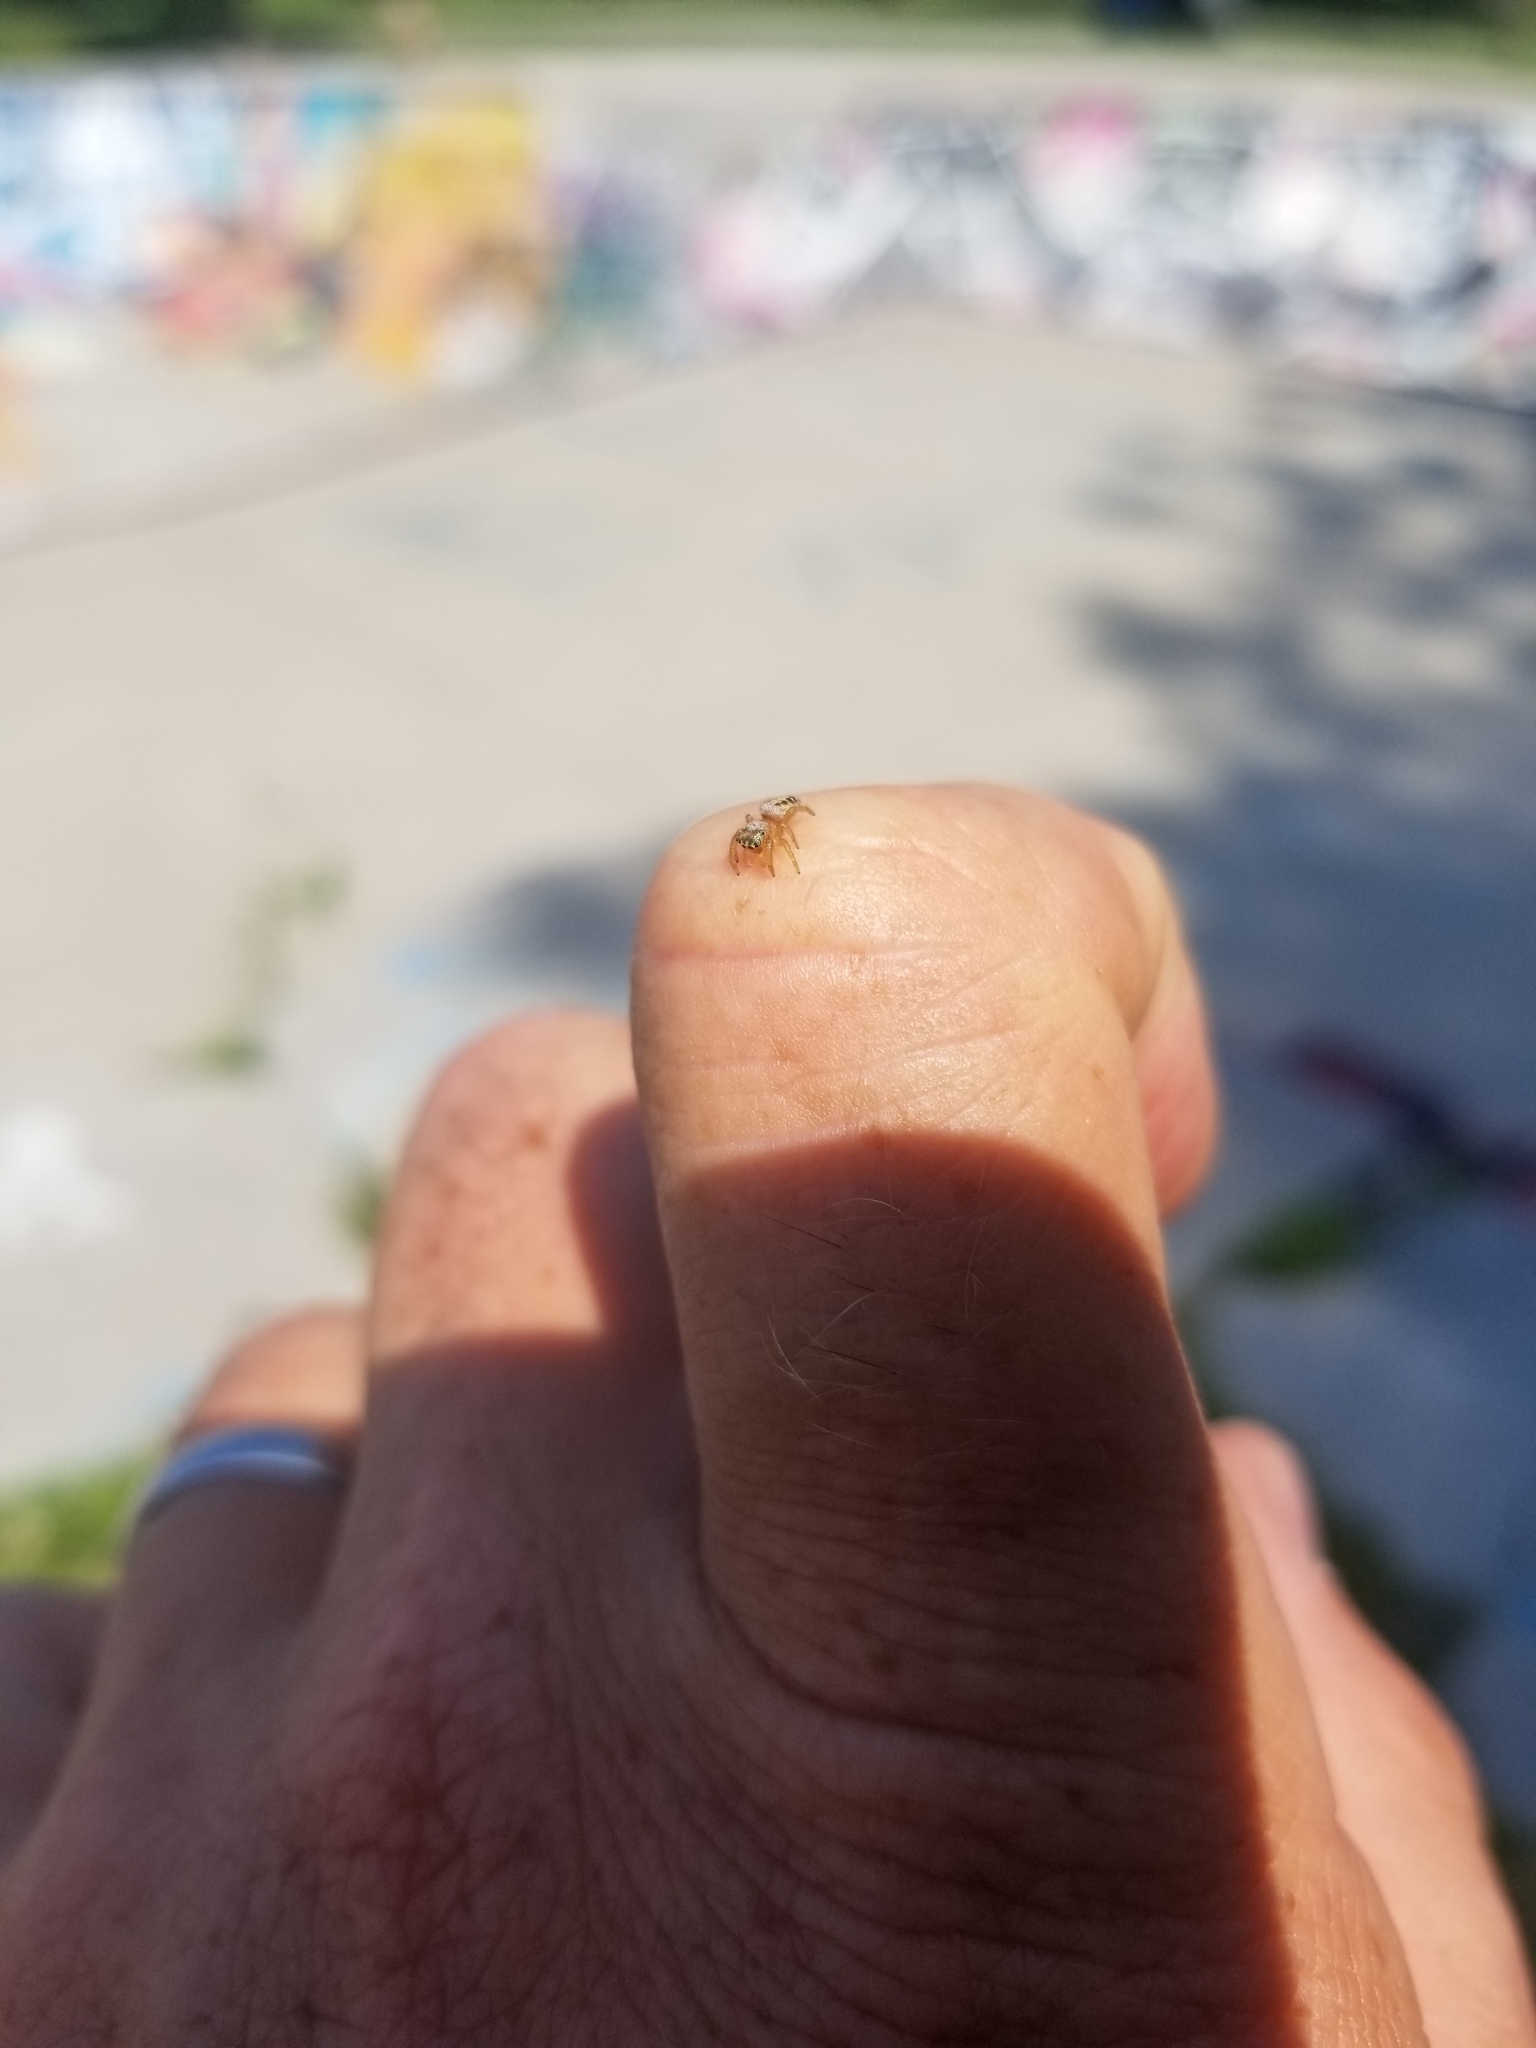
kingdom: Animalia
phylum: Arthropoda
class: Arachnida
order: Araneae
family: Salticidae
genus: Eris
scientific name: Eris floridana
